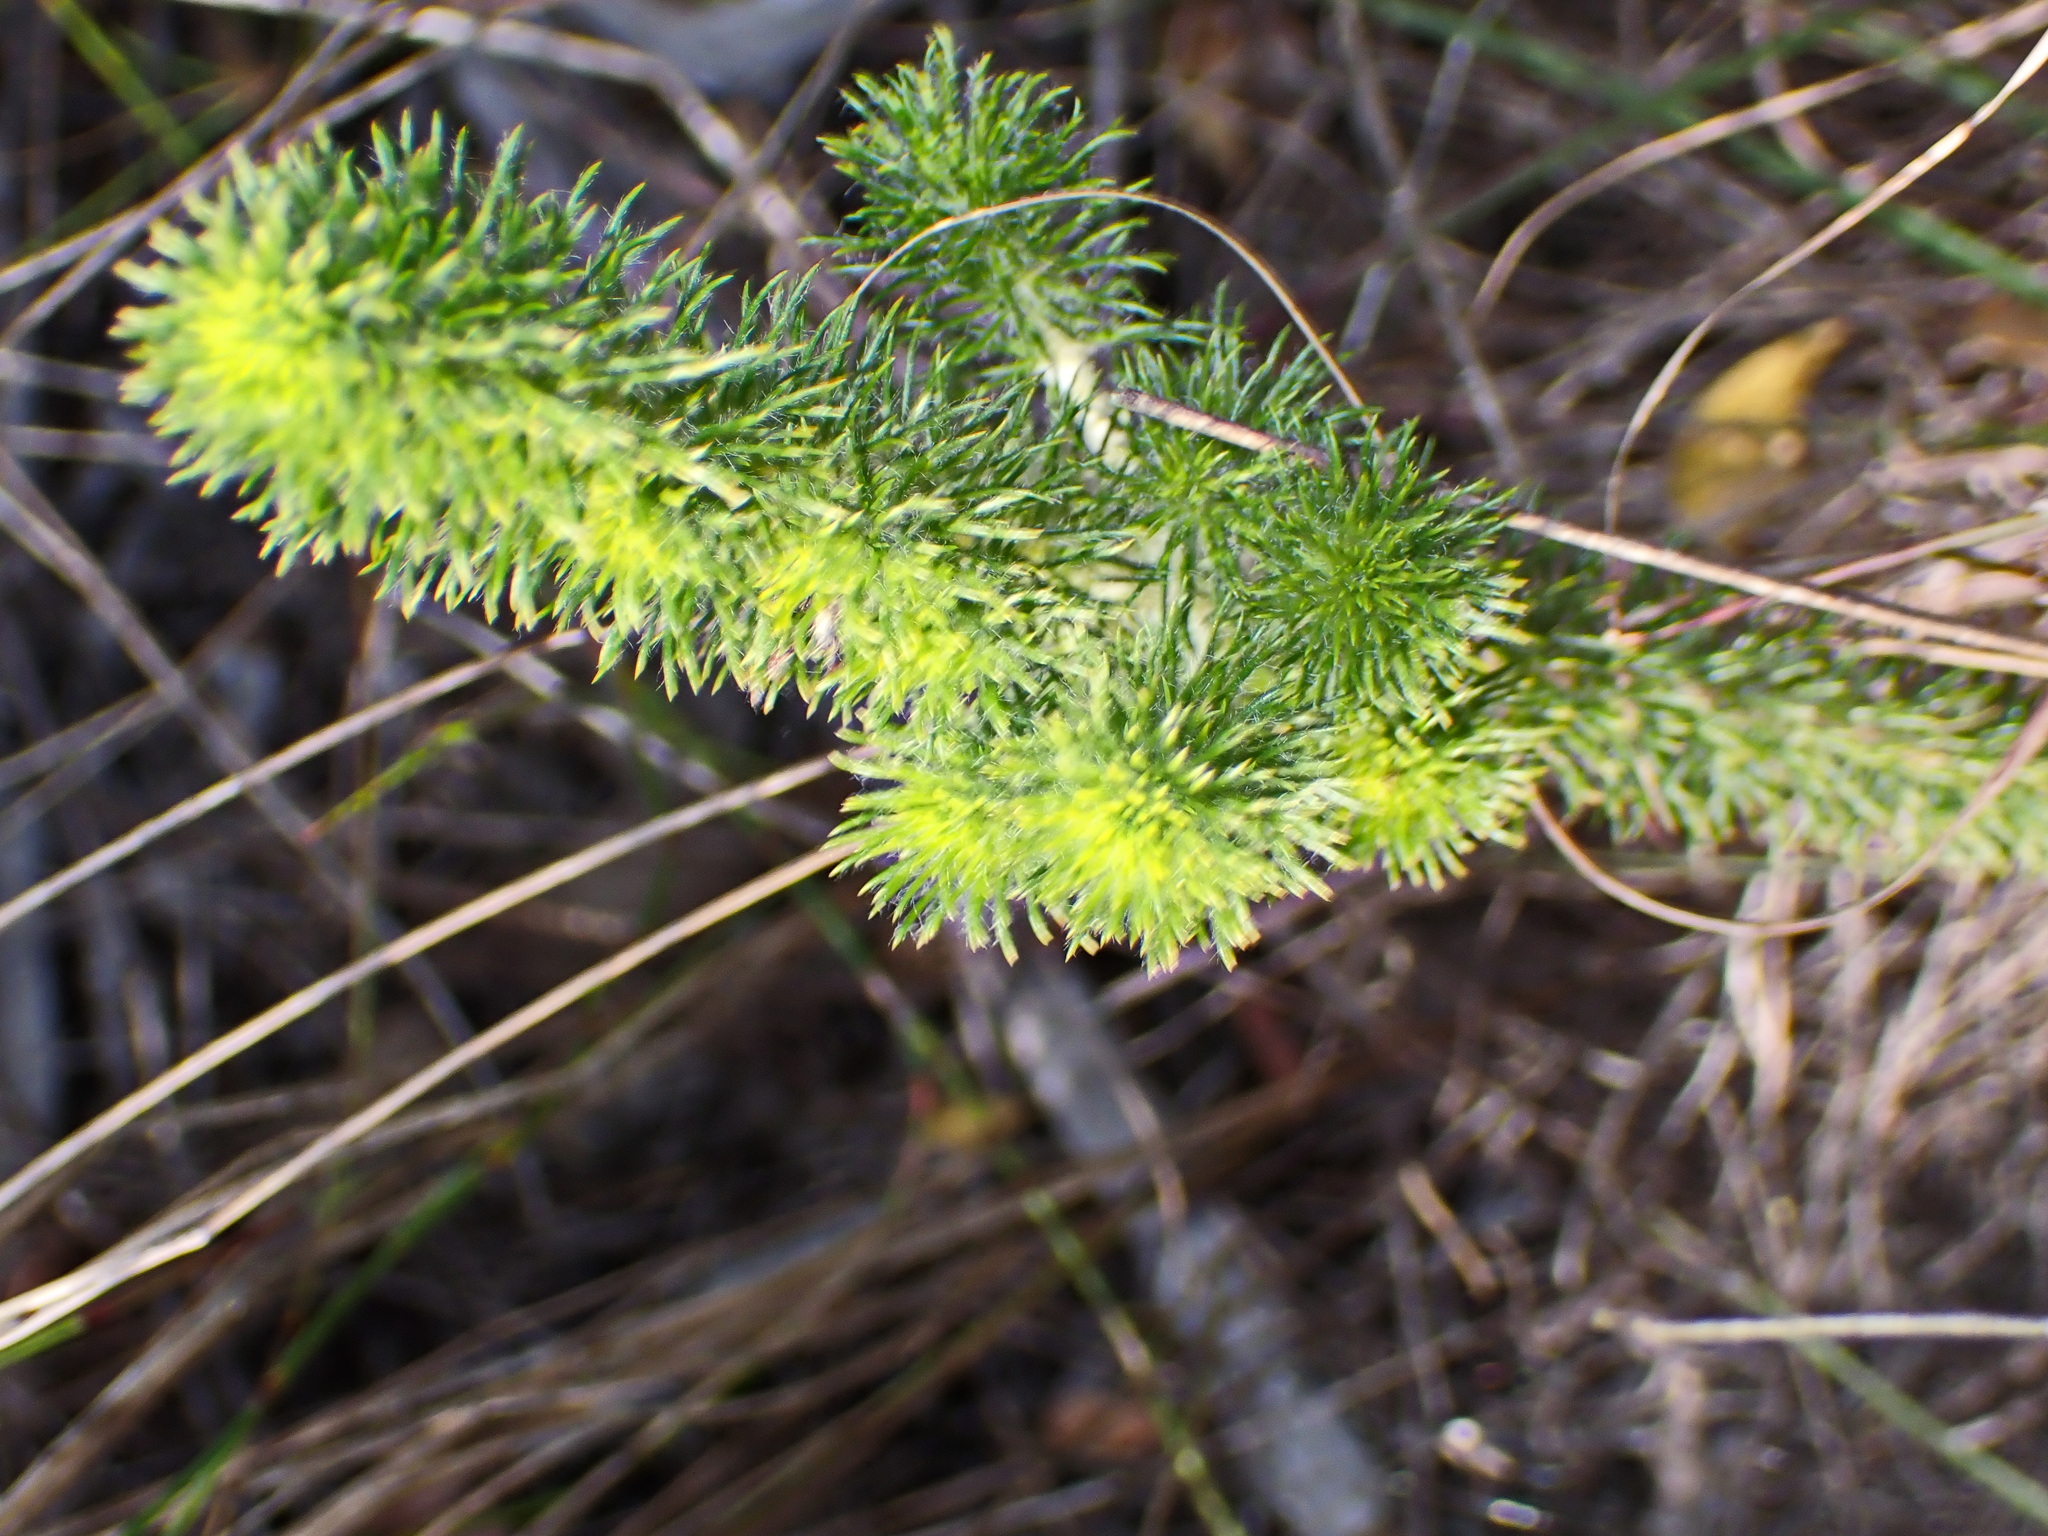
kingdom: Plantae
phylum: Tracheophyta
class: Magnoliopsida
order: Fabales
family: Fabaceae
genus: Aspalathus
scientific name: Aspalathus alopecurus
